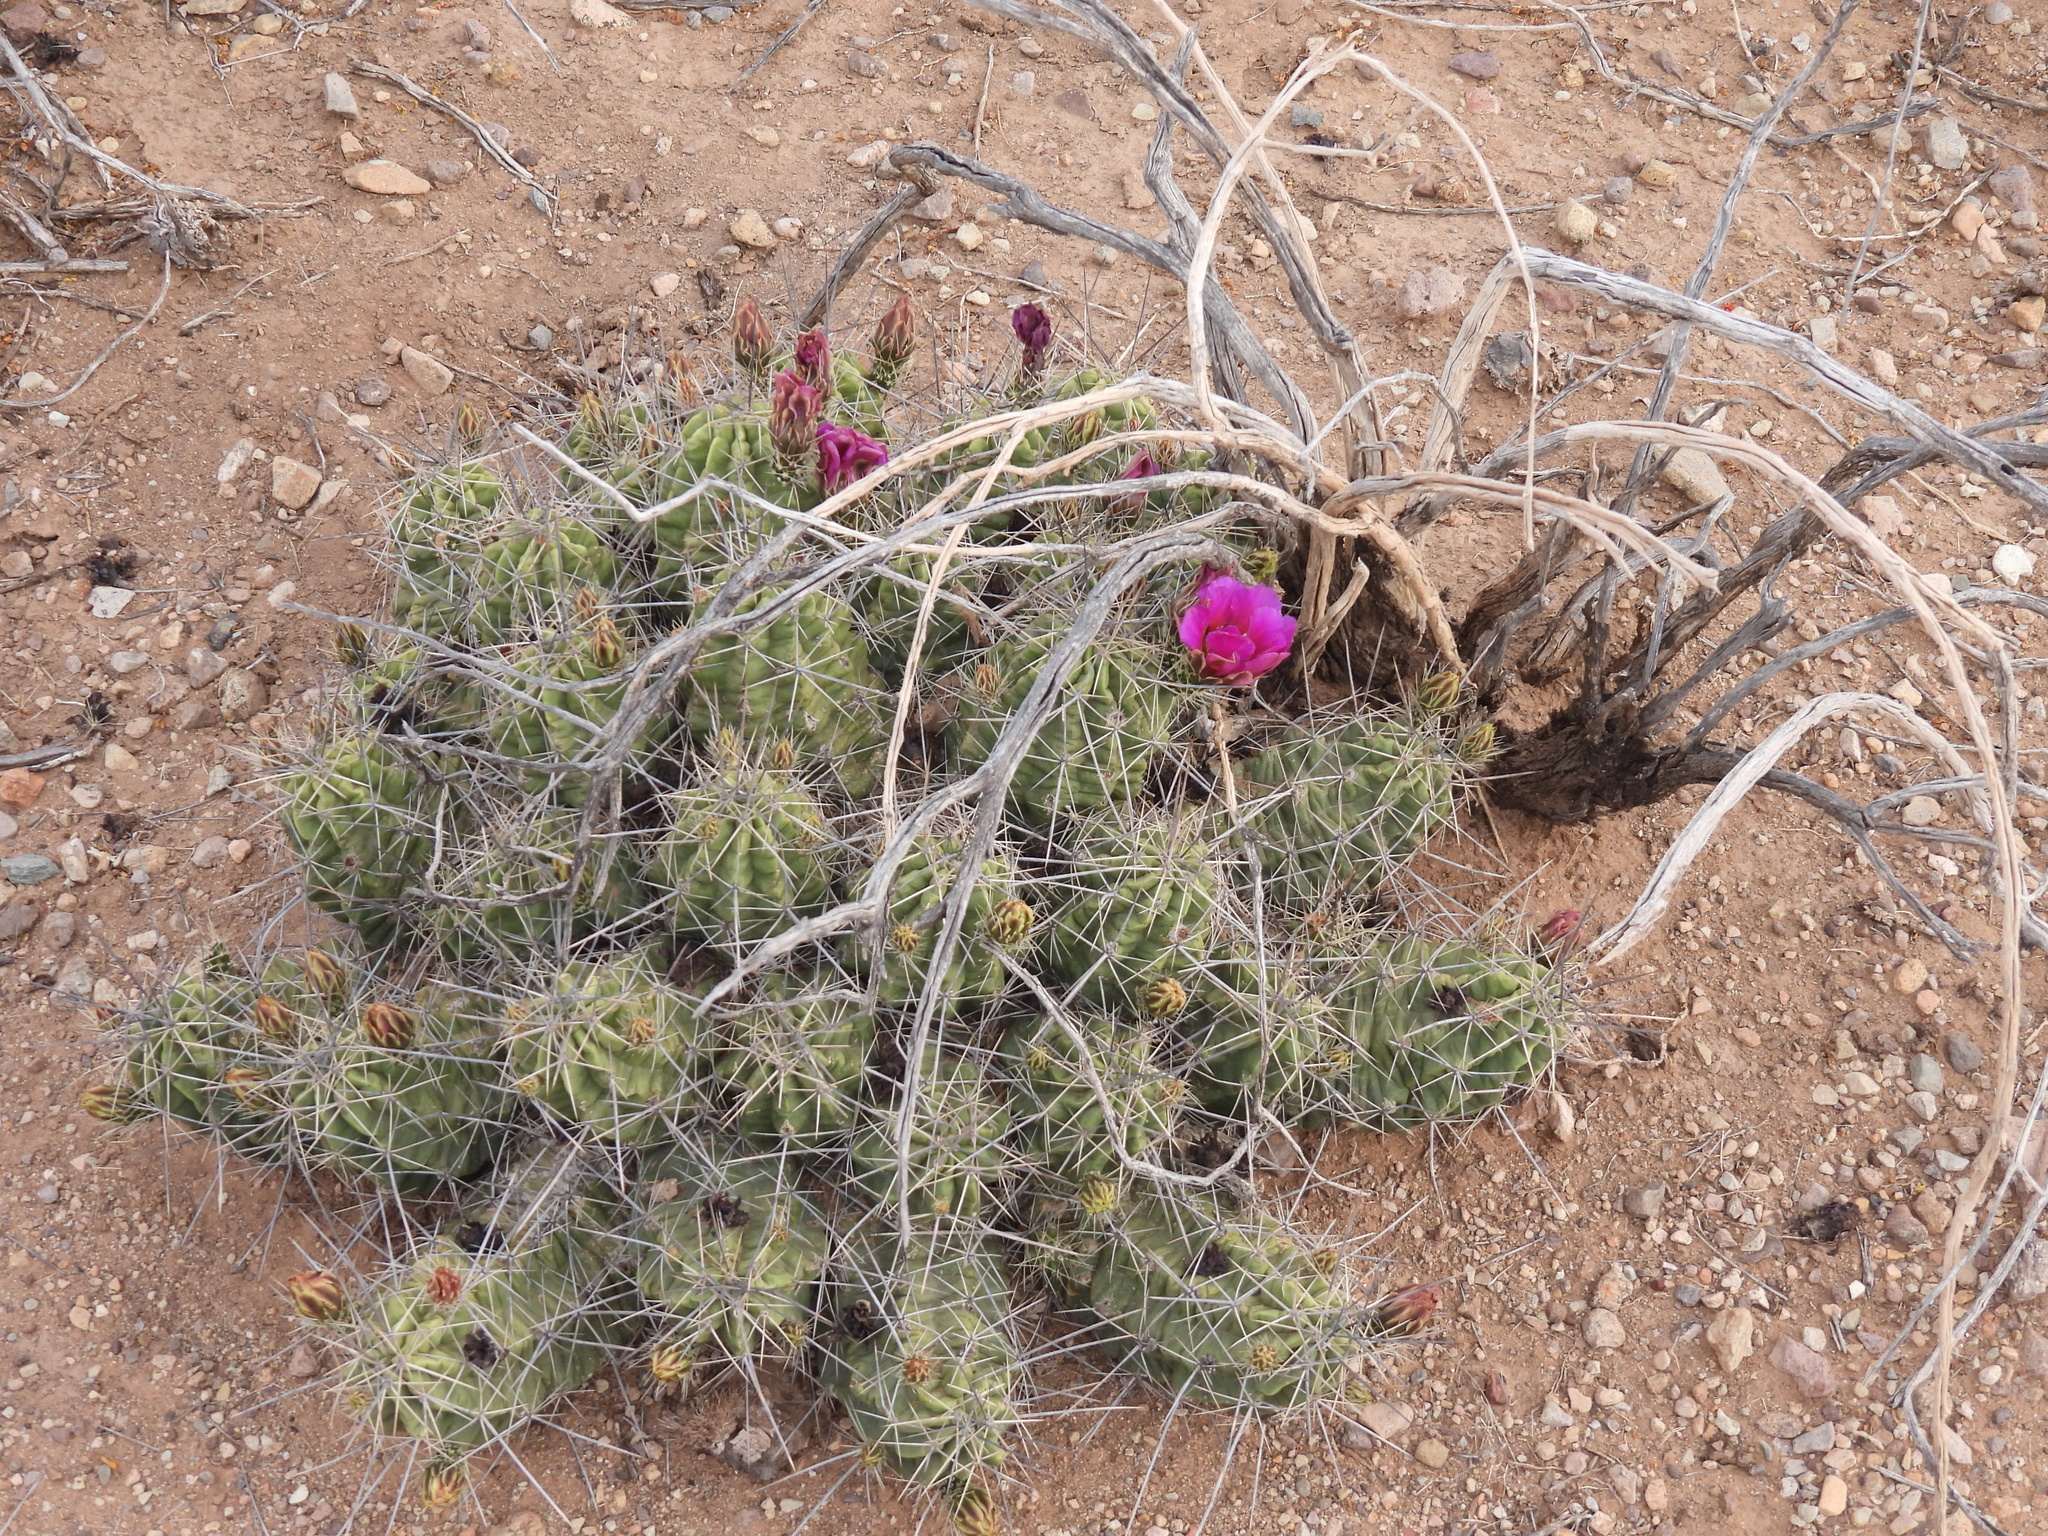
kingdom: Plantae
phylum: Tracheophyta
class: Magnoliopsida
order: Caryophyllales
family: Cactaceae
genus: Echinocereus
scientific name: Echinocereus enneacanthus
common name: Pitaya
